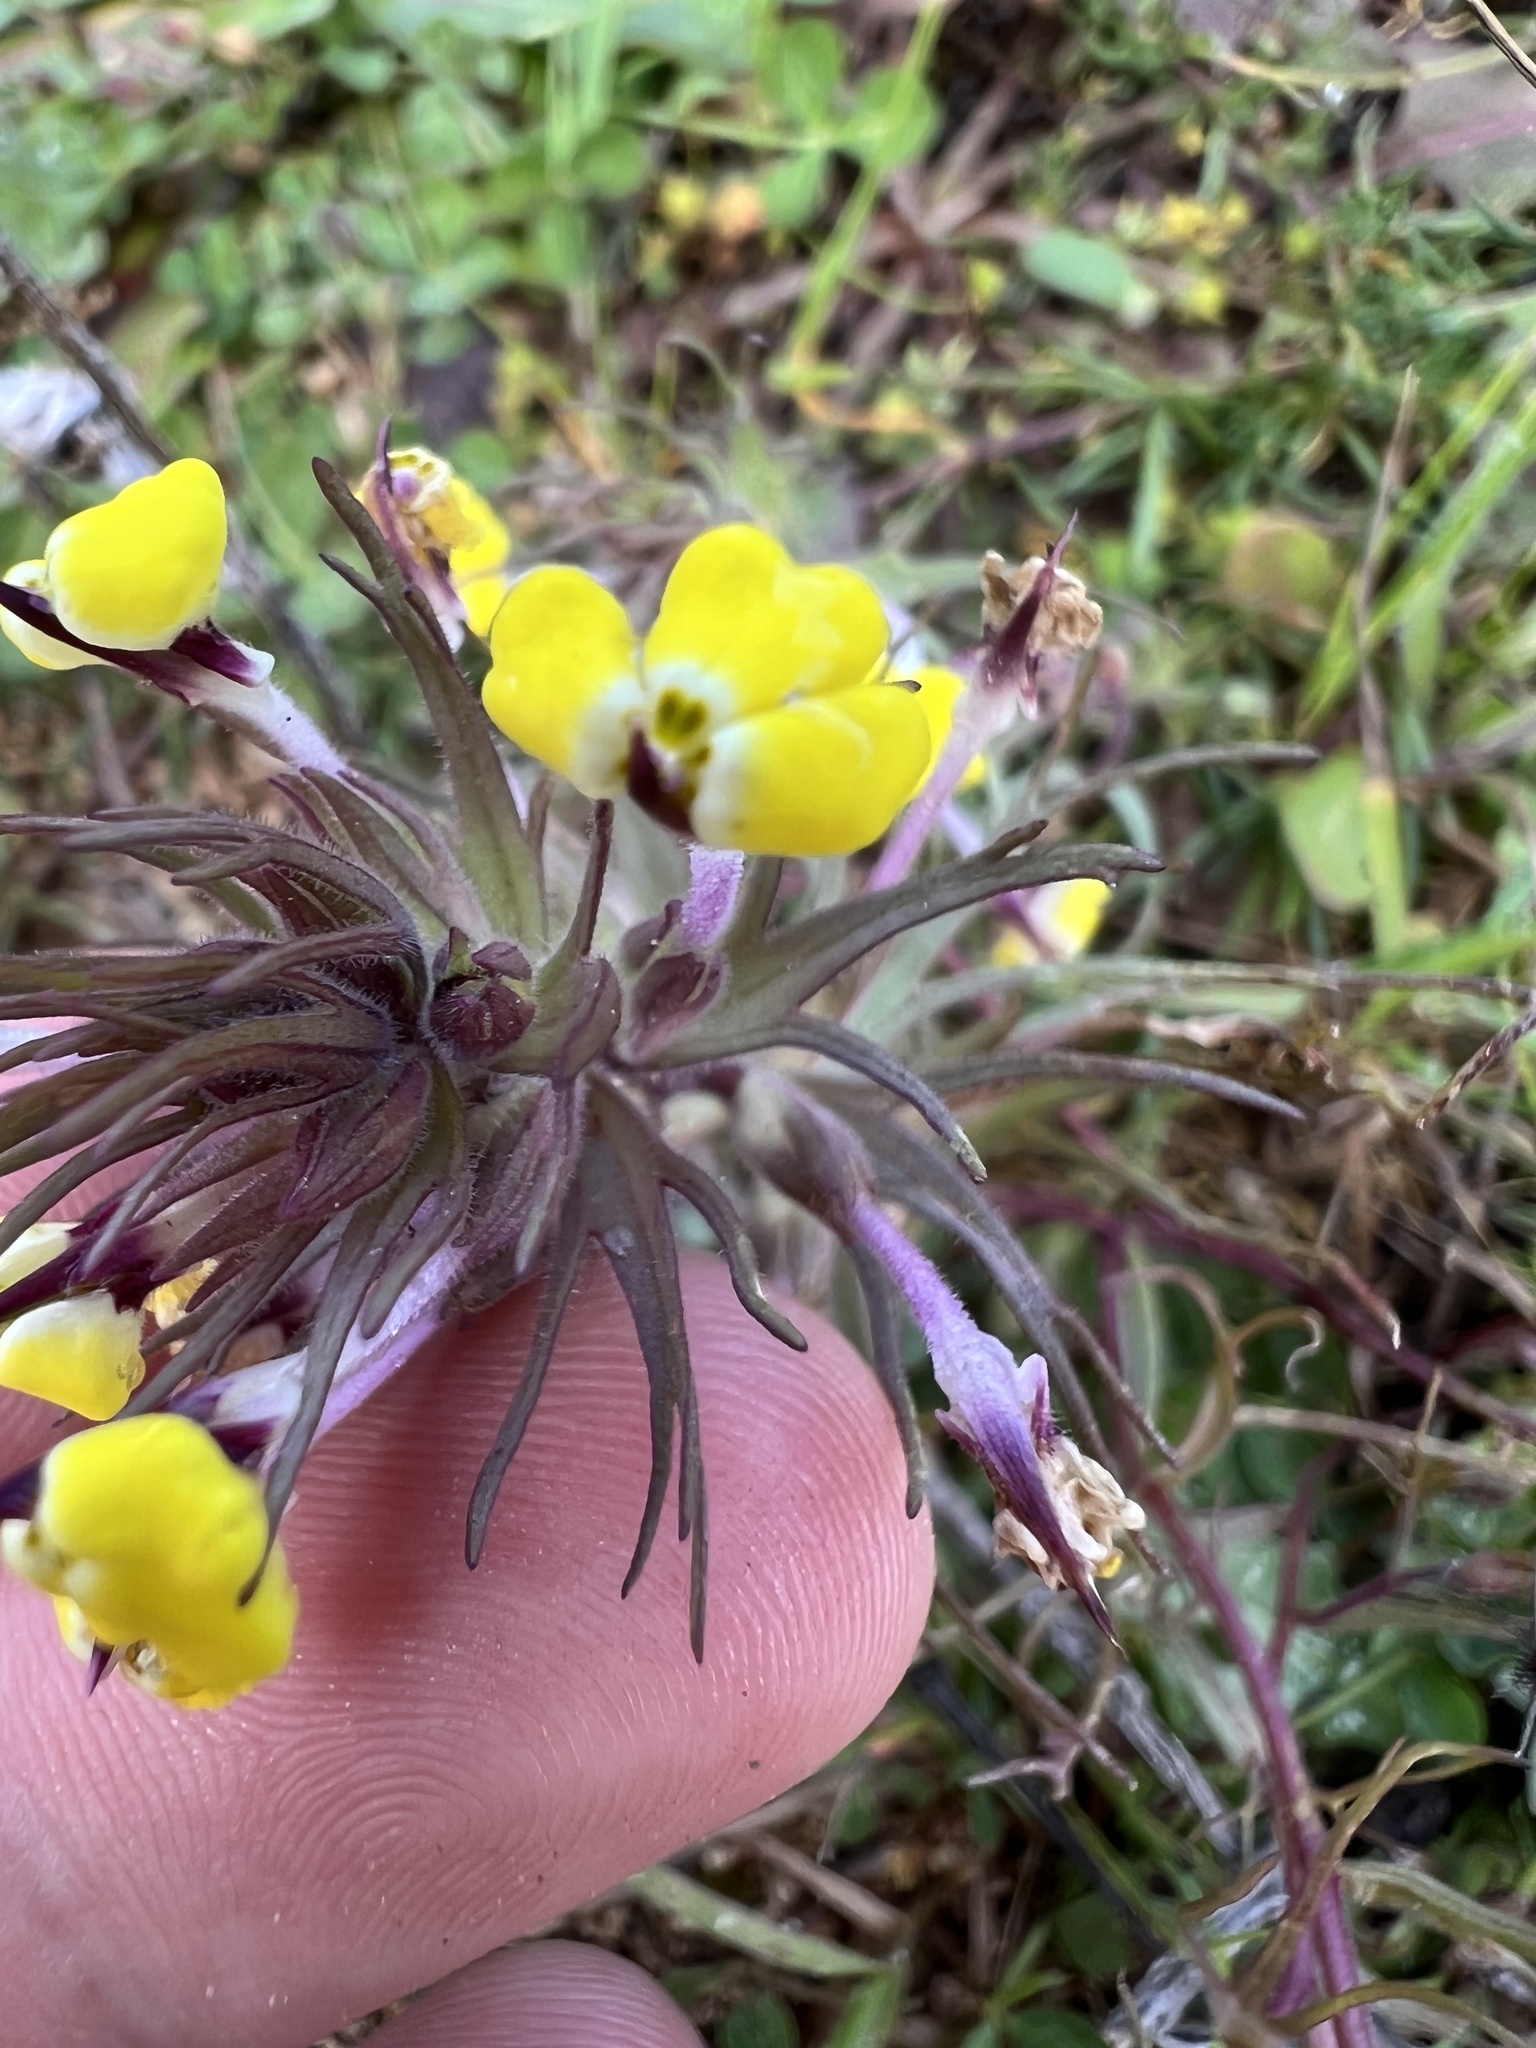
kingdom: Plantae
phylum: Tracheophyta
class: Magnoliopsida
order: Lamiales
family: Orobanchaceae
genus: Triphysaria
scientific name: Triphysaria eriantha
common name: Johnny-tuck
